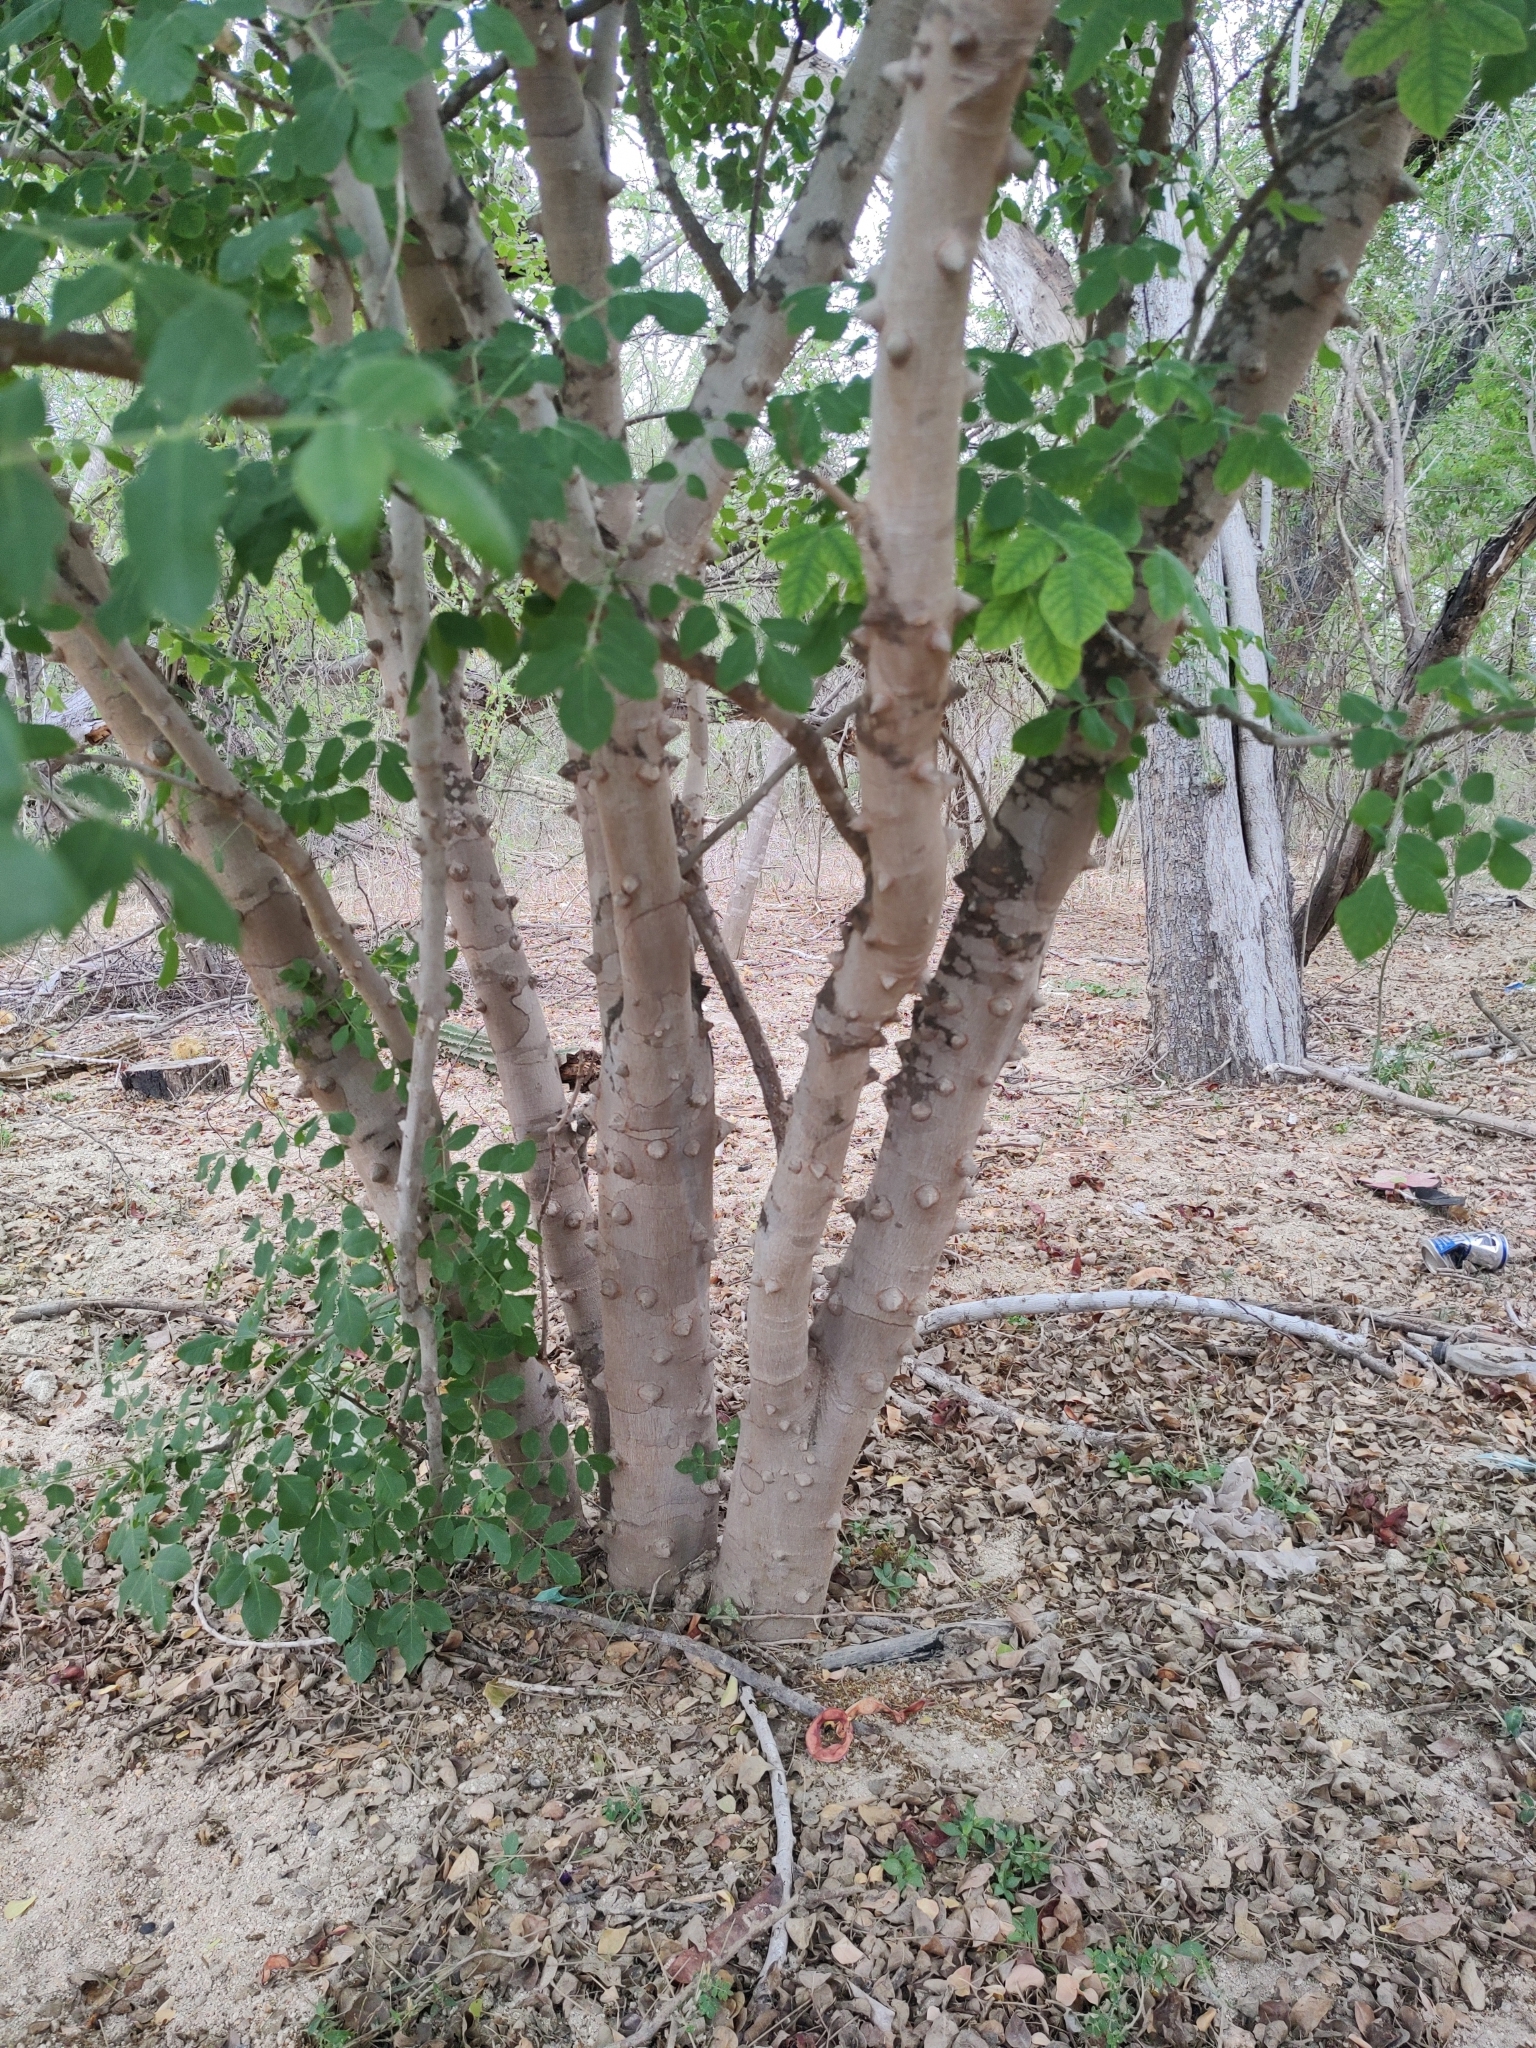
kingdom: Plantae
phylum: Tracheophyta
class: Magnoliopsida
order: Sapindales
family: Rutaceae
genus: Zanthoxylum
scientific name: Zanthoxylum arborescens
